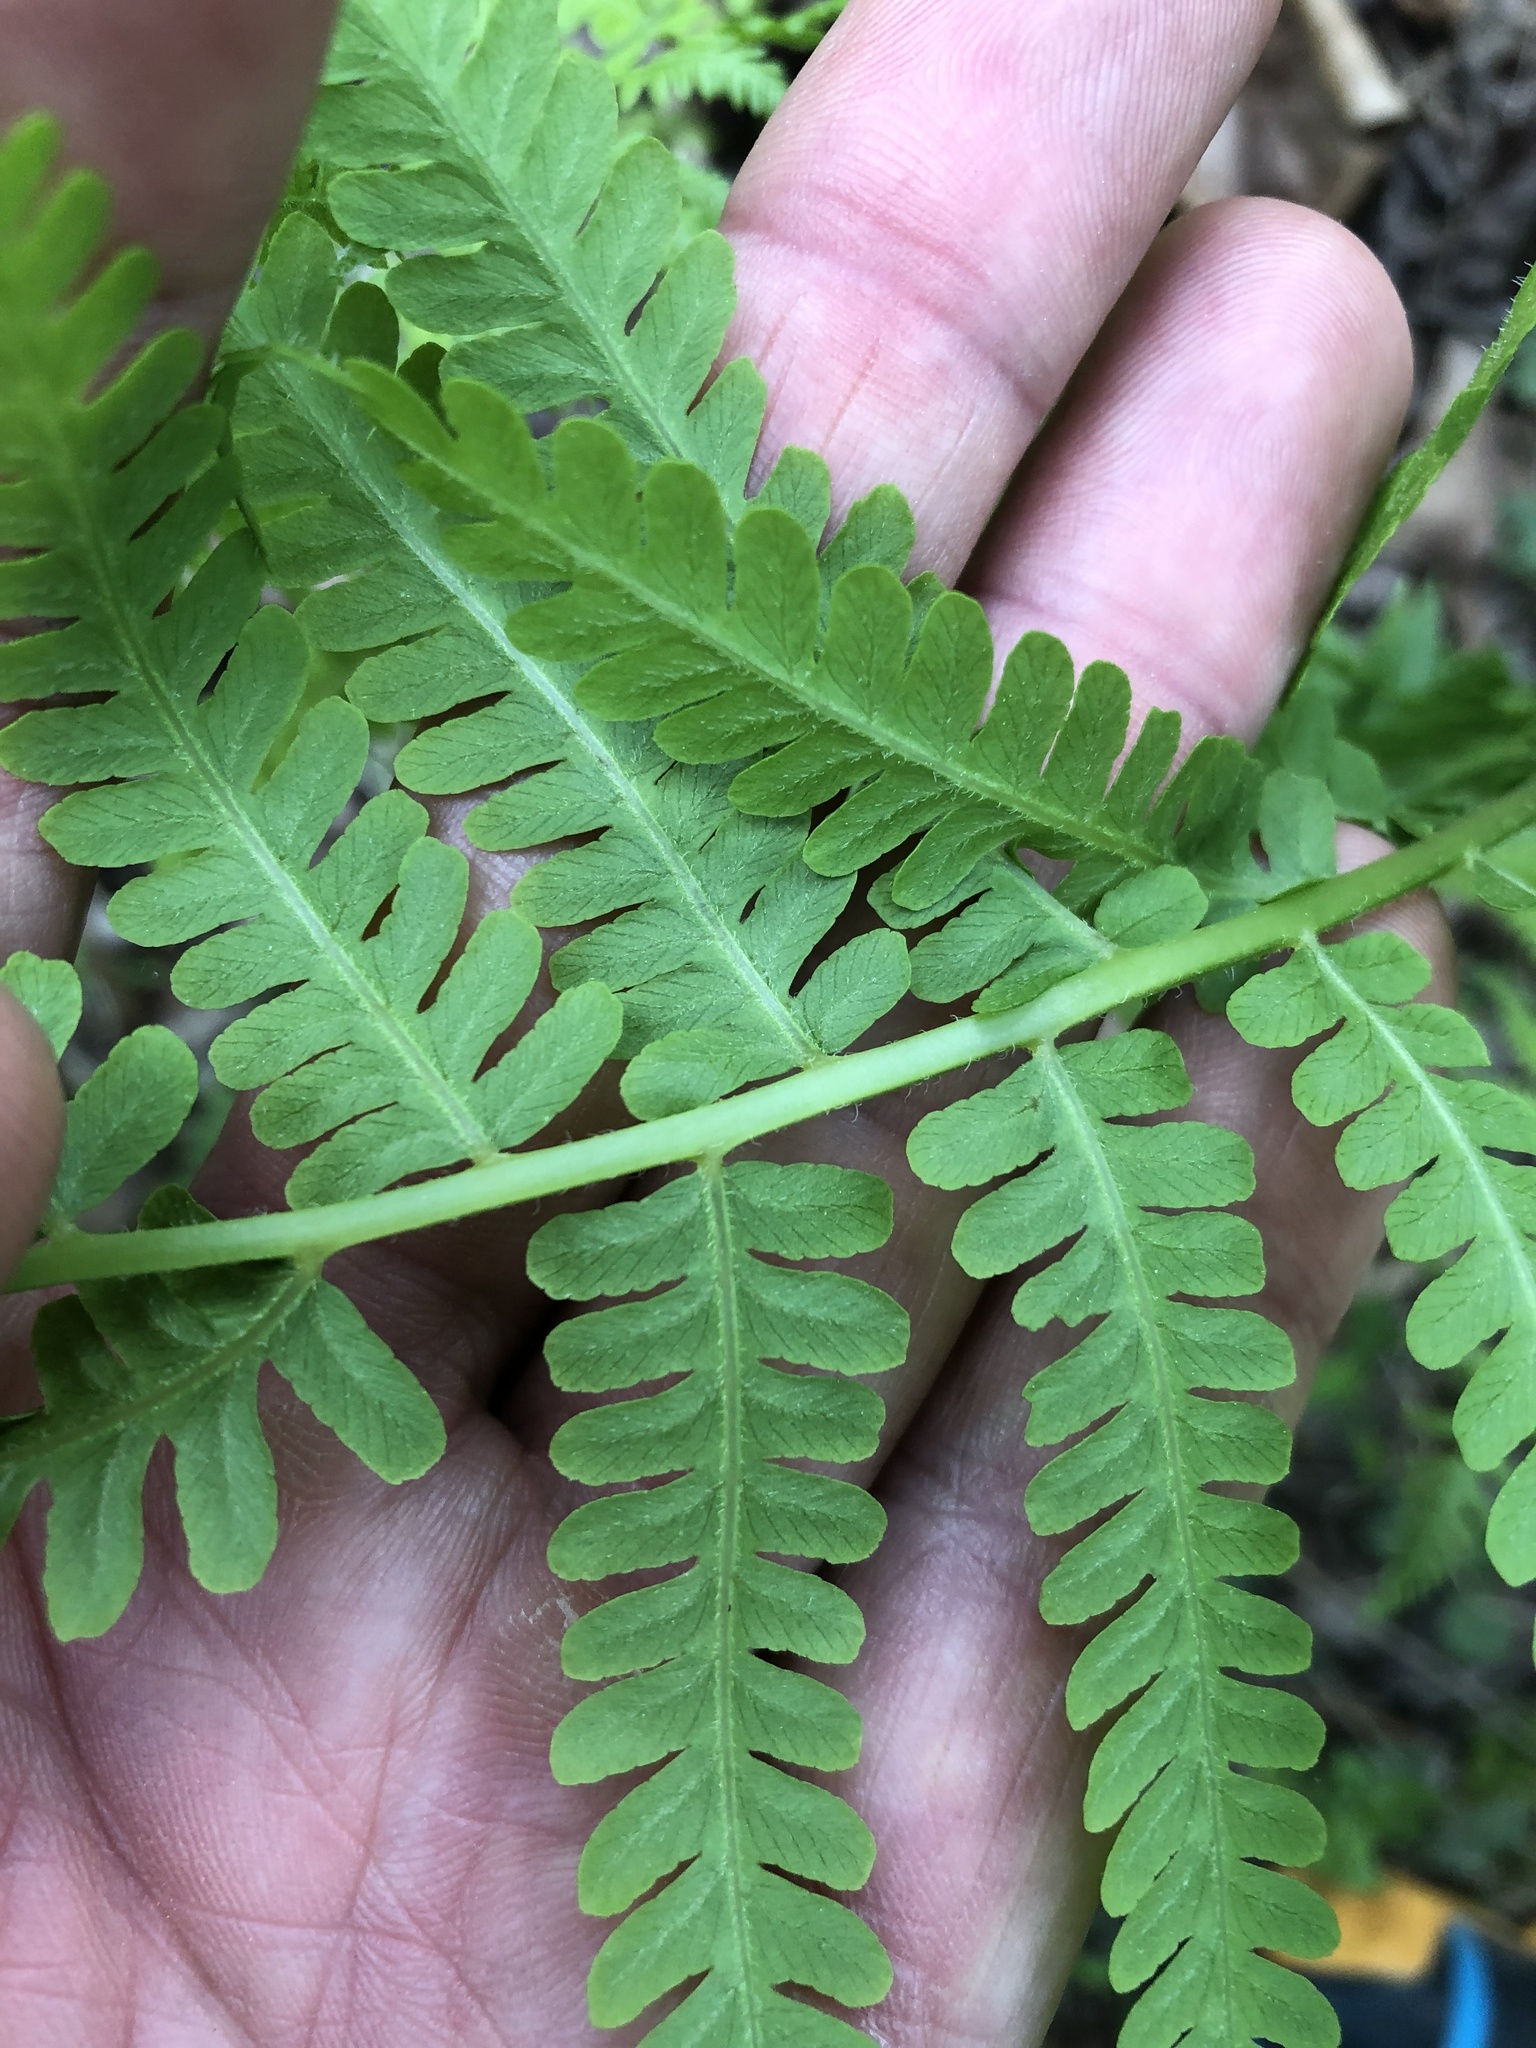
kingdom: Plantae
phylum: Tracheophyta
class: Polypodiopsida
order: Polypodiales
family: Athyriaceae
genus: Deparia
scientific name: Deparia acrostichoides
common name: Silver false spleenwort
